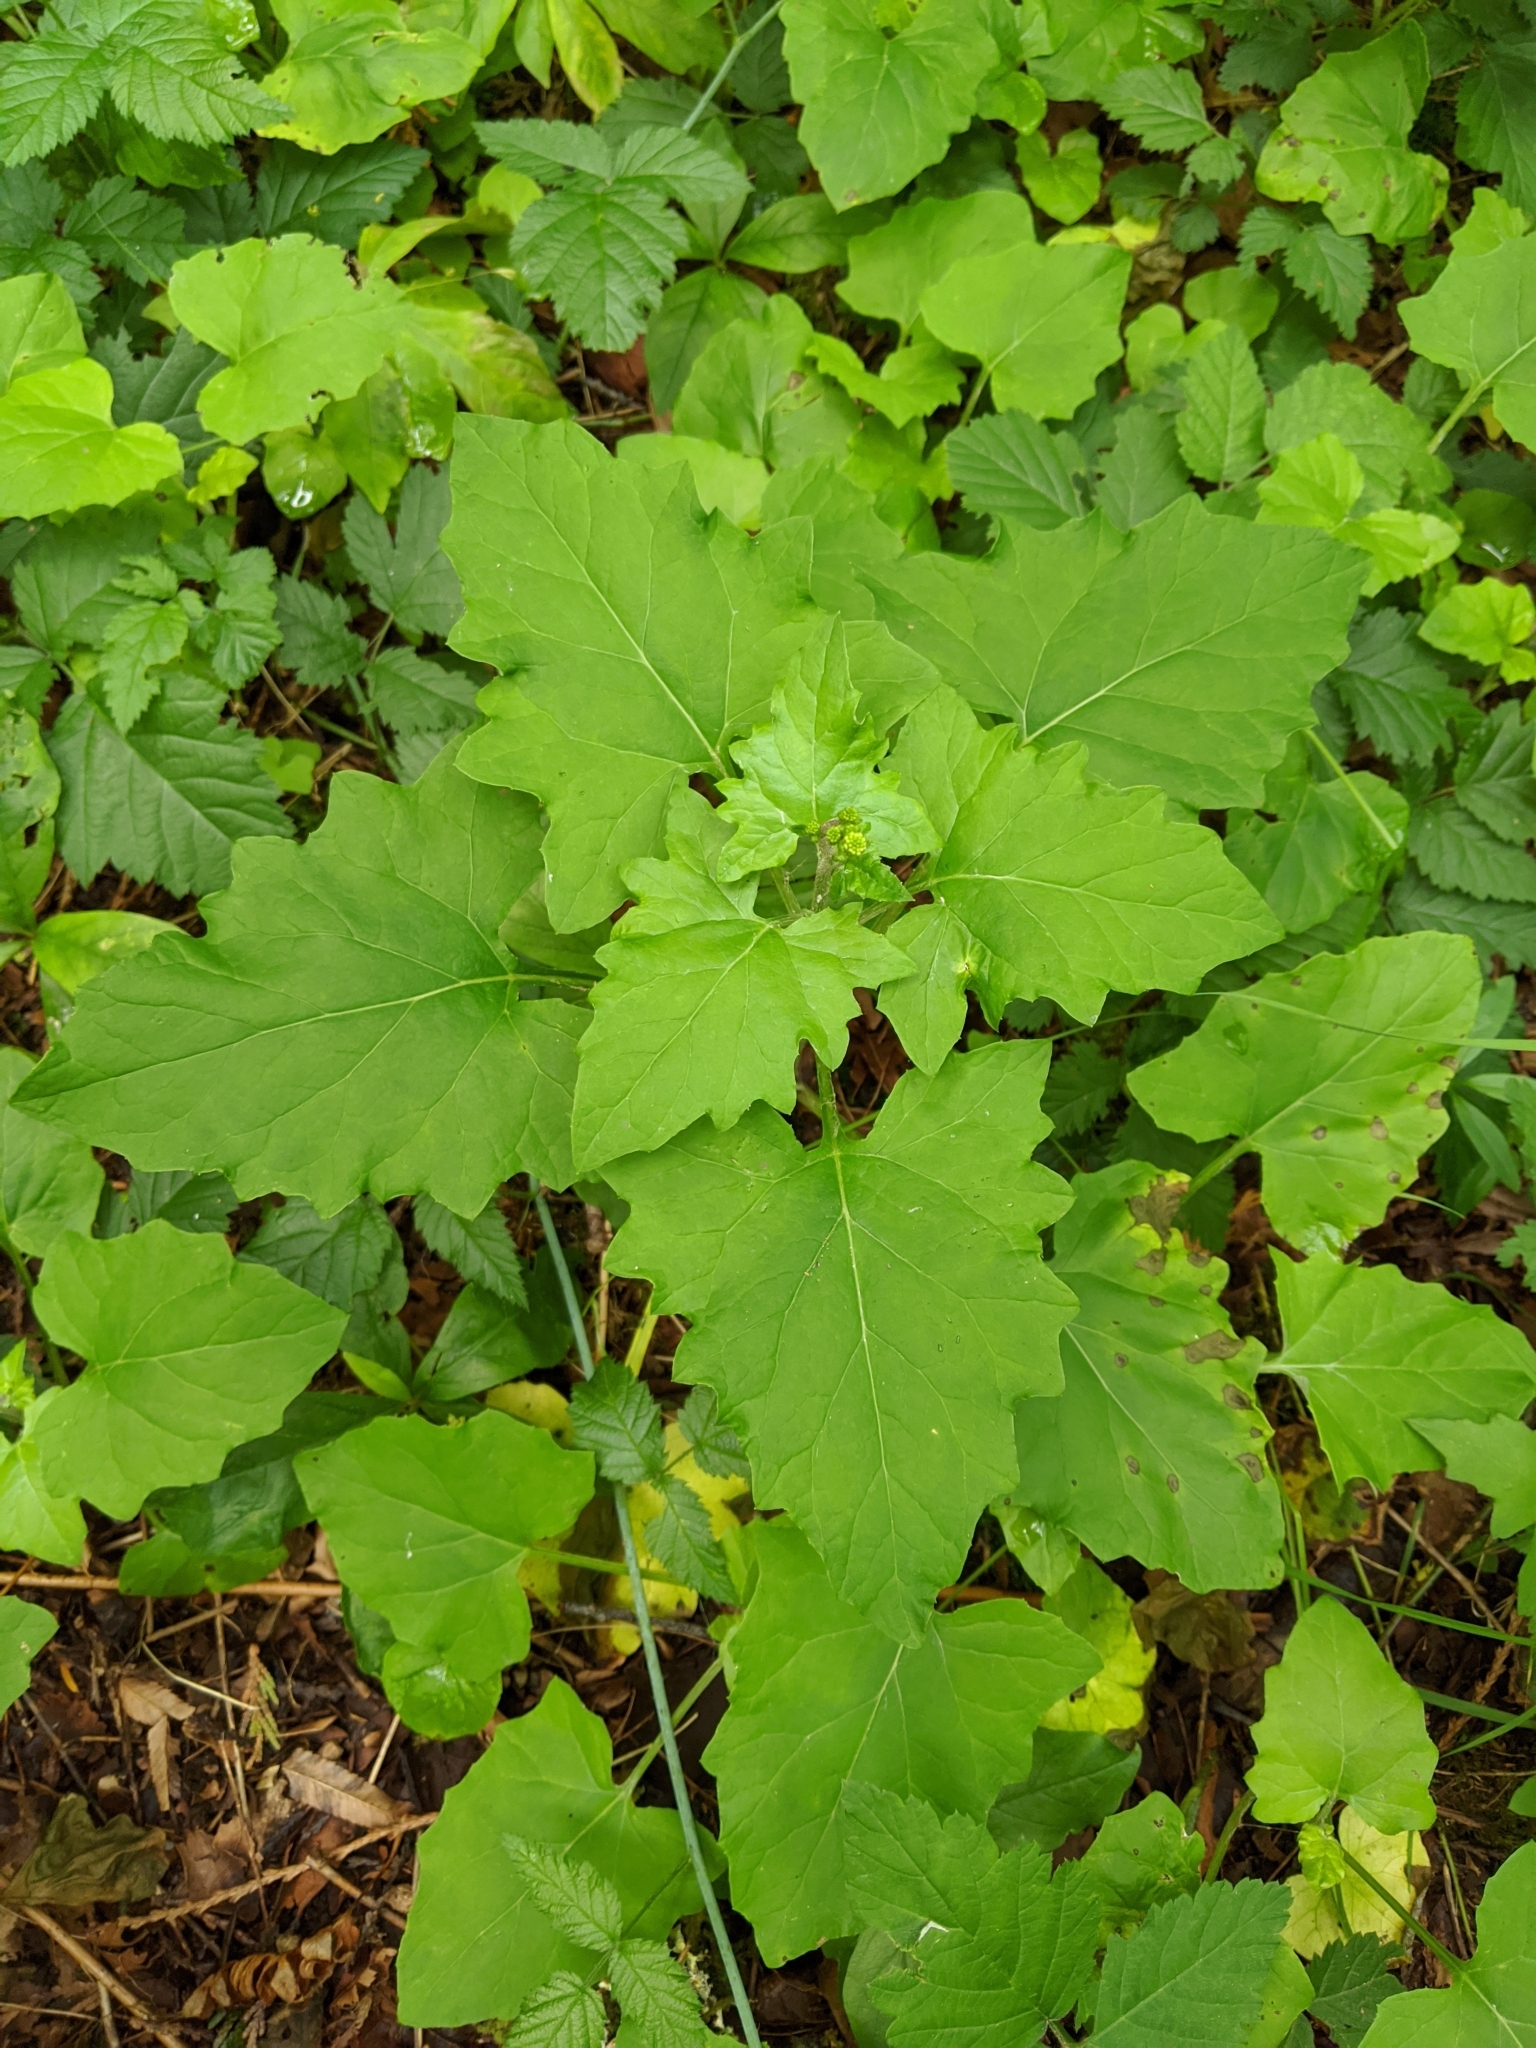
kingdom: Plantae
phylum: Tracheophyta
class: Magnoliopsida
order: Asterales
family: Asteraceae
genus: Adenocaulon
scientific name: Adenocaulon bicolor
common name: Trailplant
